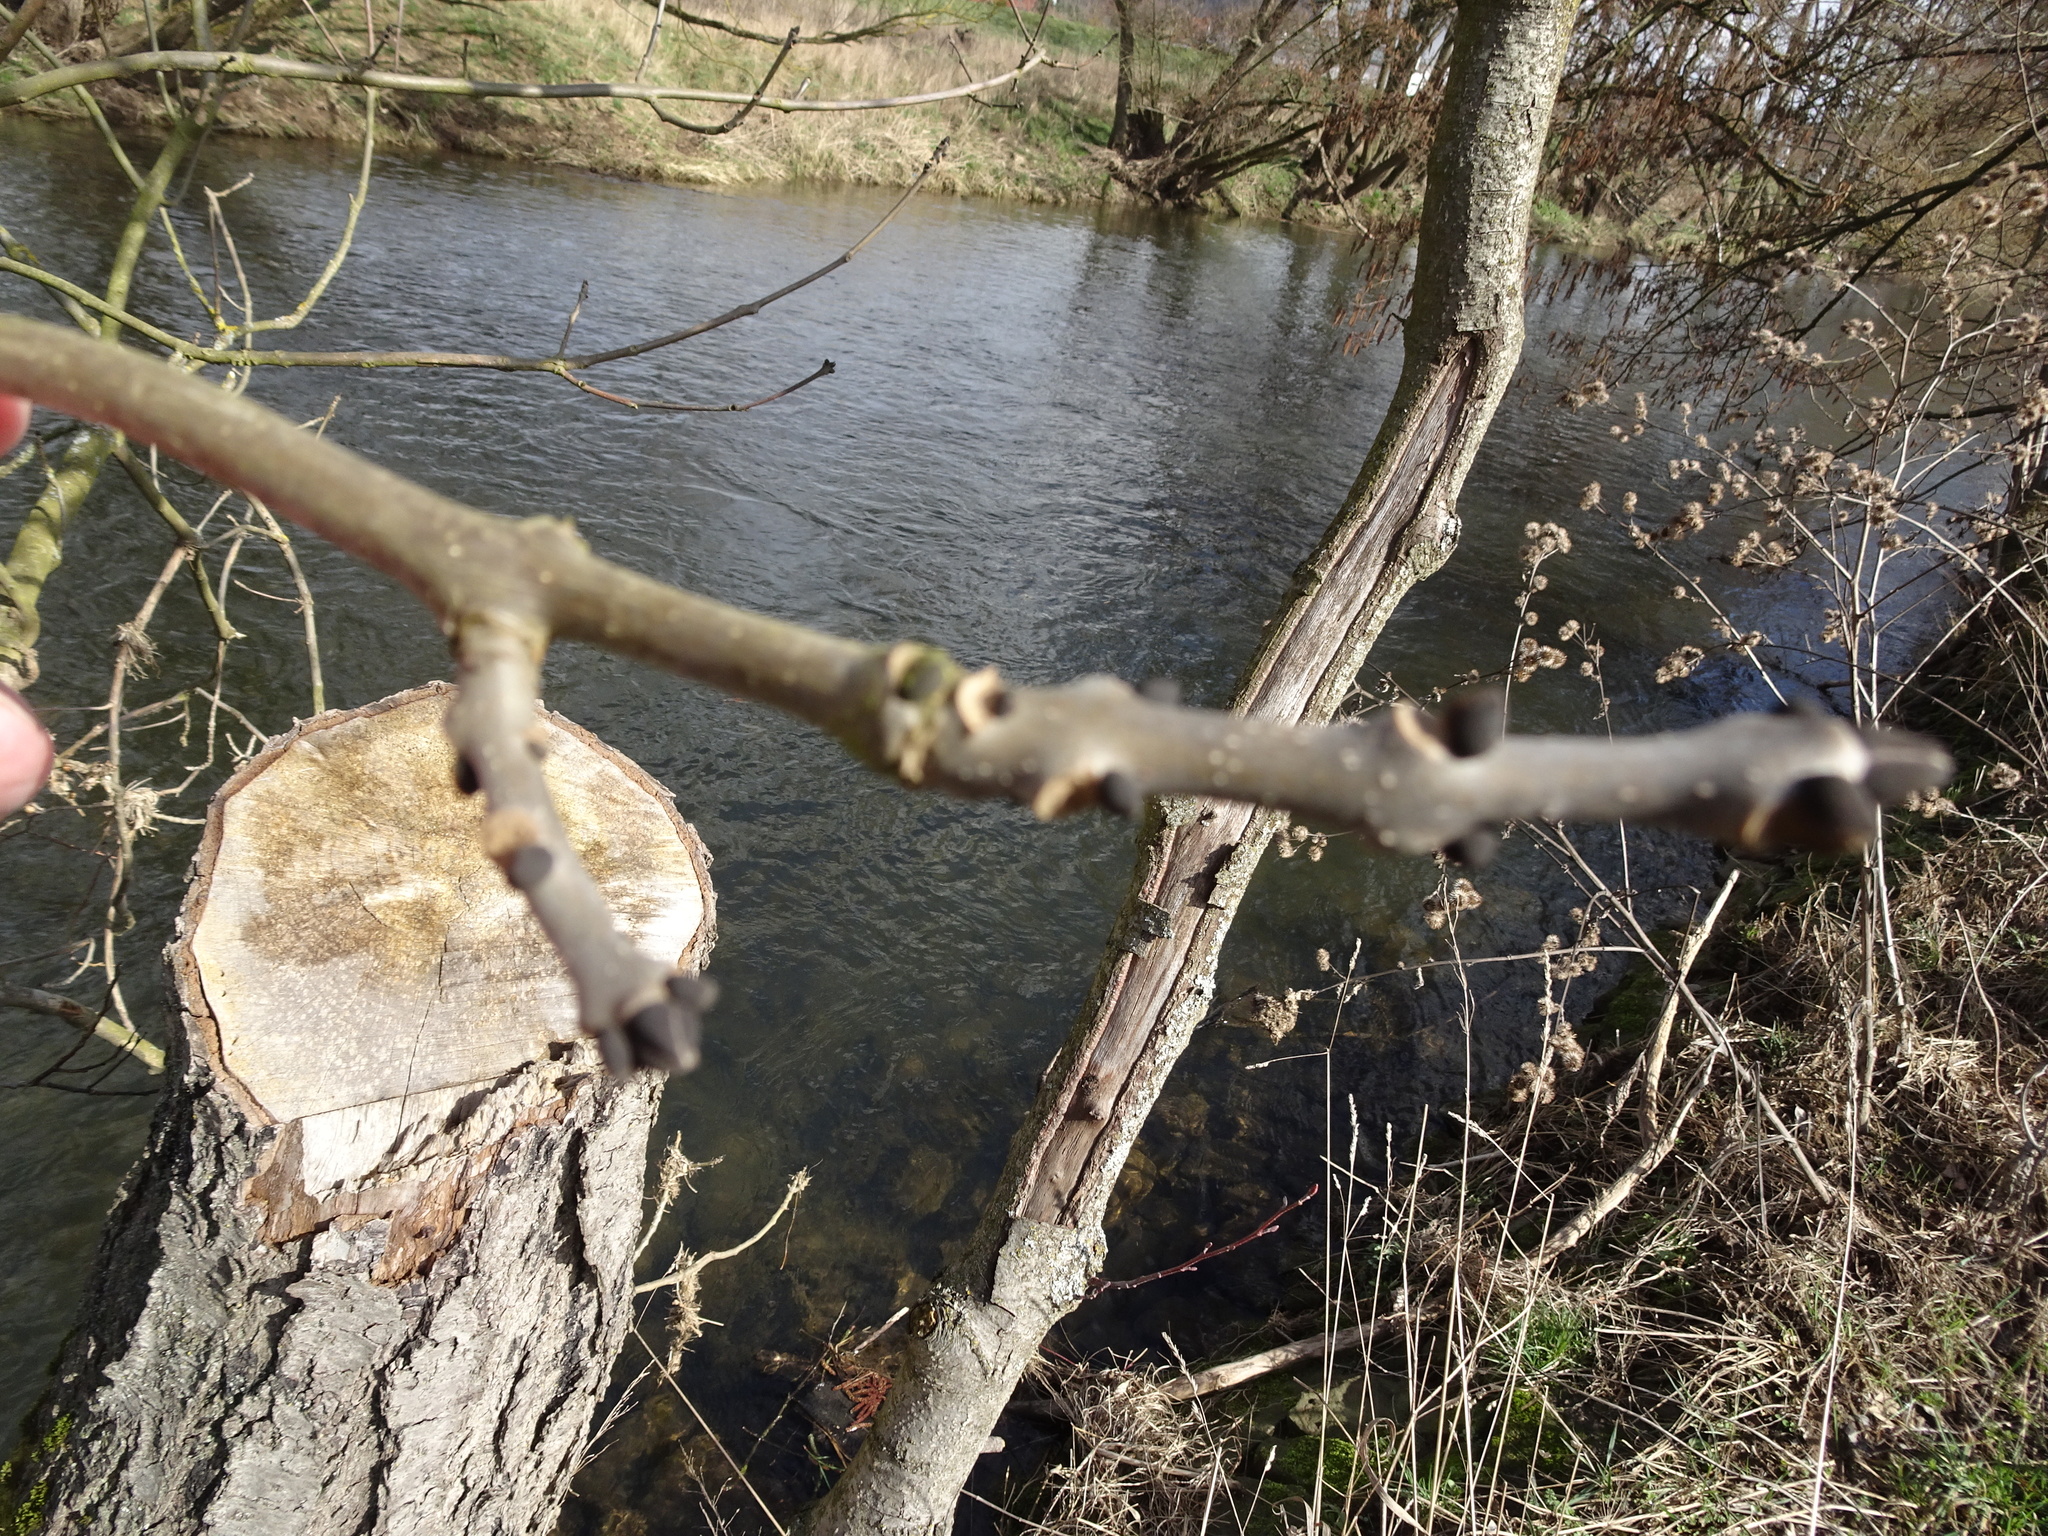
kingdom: Plantae
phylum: Tracheophyta
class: Magnoliopsida
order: Lamiales
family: Oleaceae
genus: Fraxinus
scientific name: Fraxinus excelsior
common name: European ash
